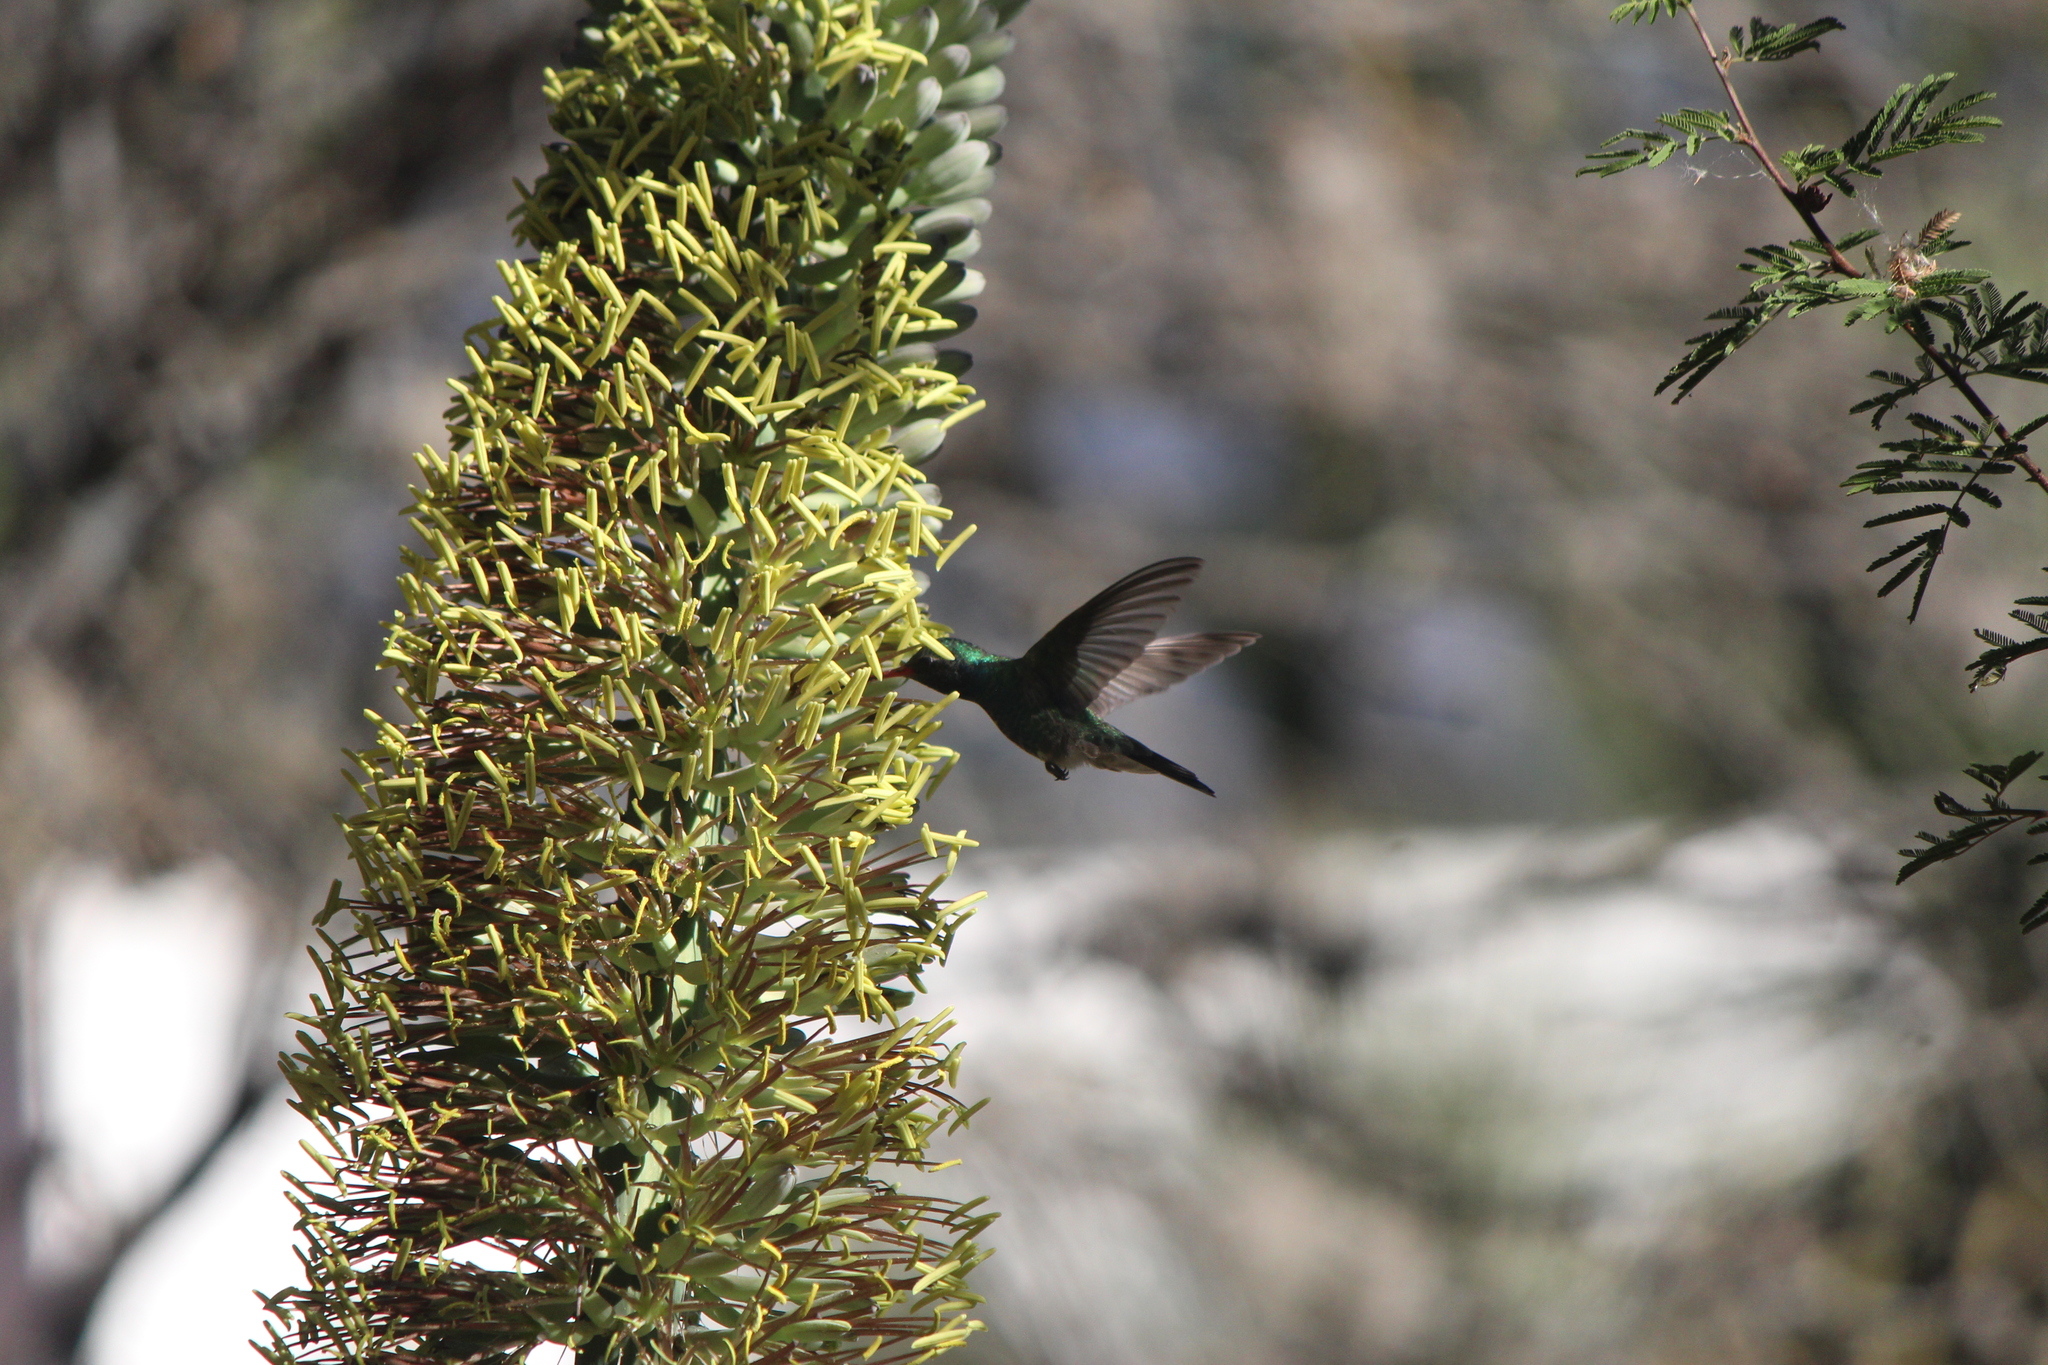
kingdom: Animalia
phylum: Chordata
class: Aves
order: Apodiformes
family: Trochilidae
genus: Cynanthus
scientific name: Cynanthus latirostris
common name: Broad-billed hummingbird
